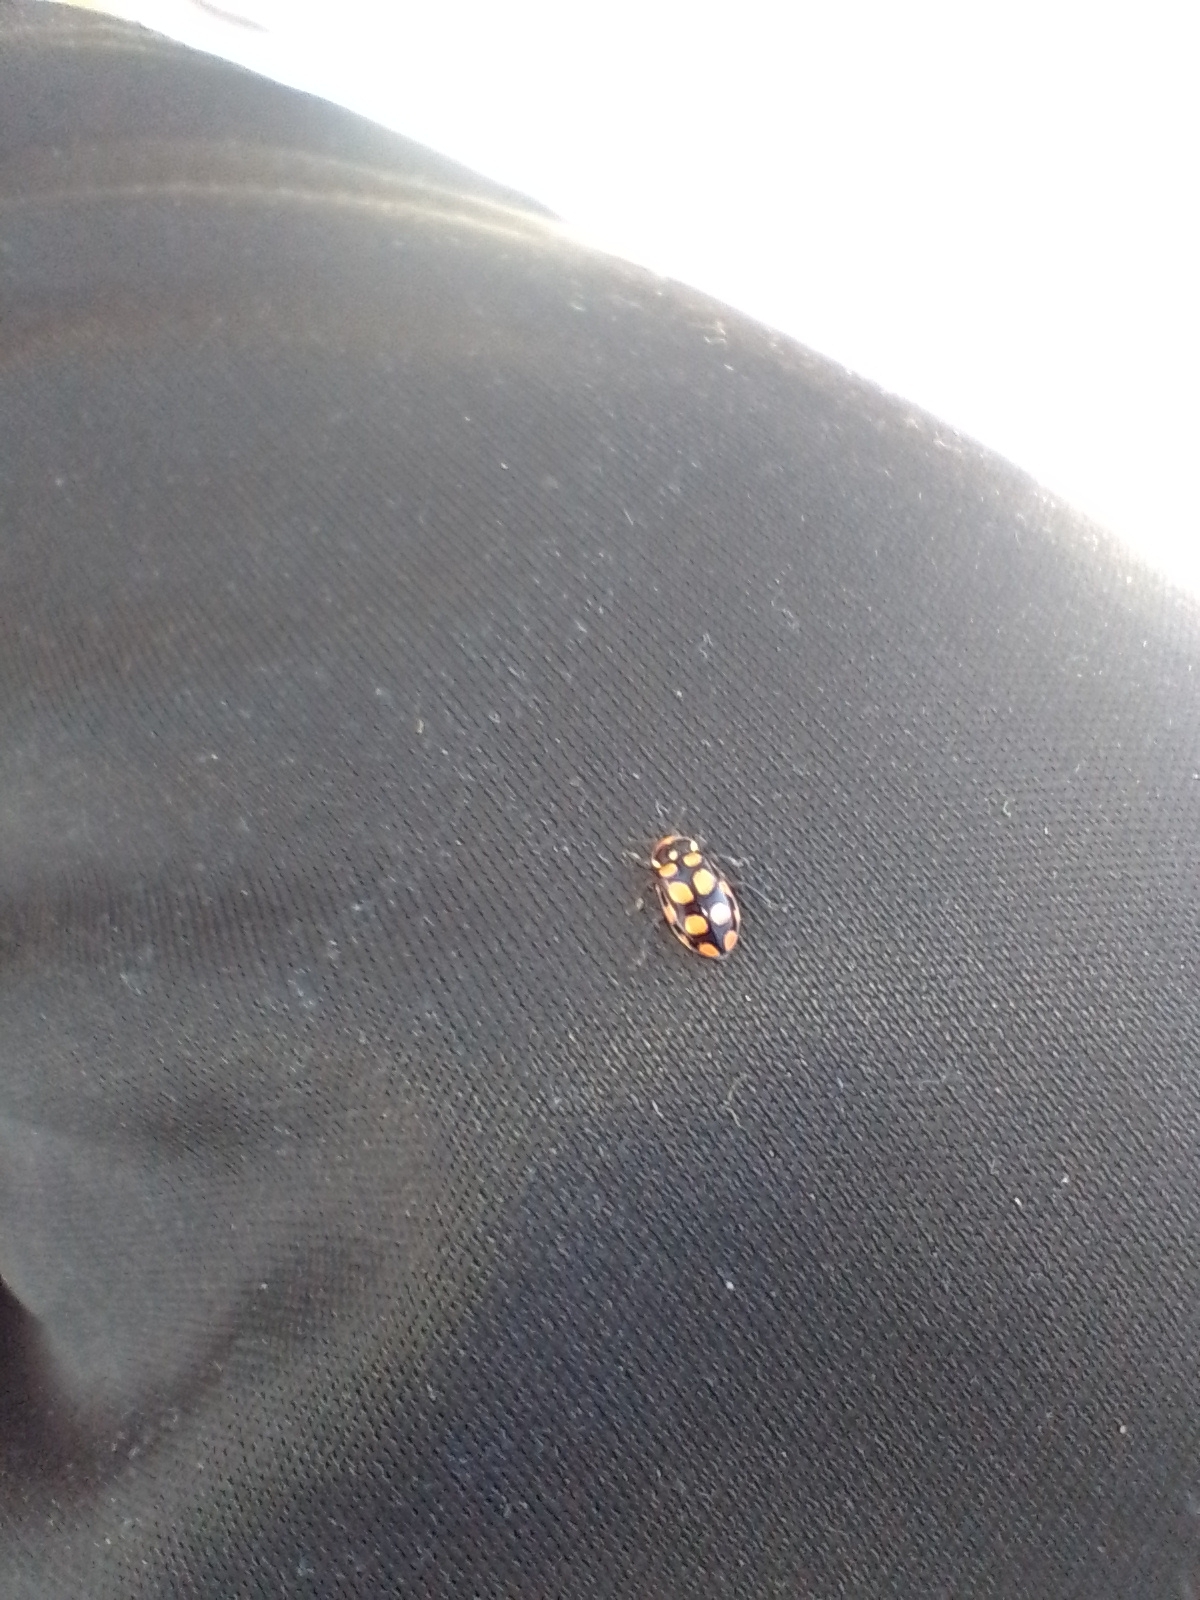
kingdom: Animalia
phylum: Arthropoda
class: Insecta
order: Coleoptera
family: Coccinellidae
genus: Eriopis
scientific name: Eriopis
